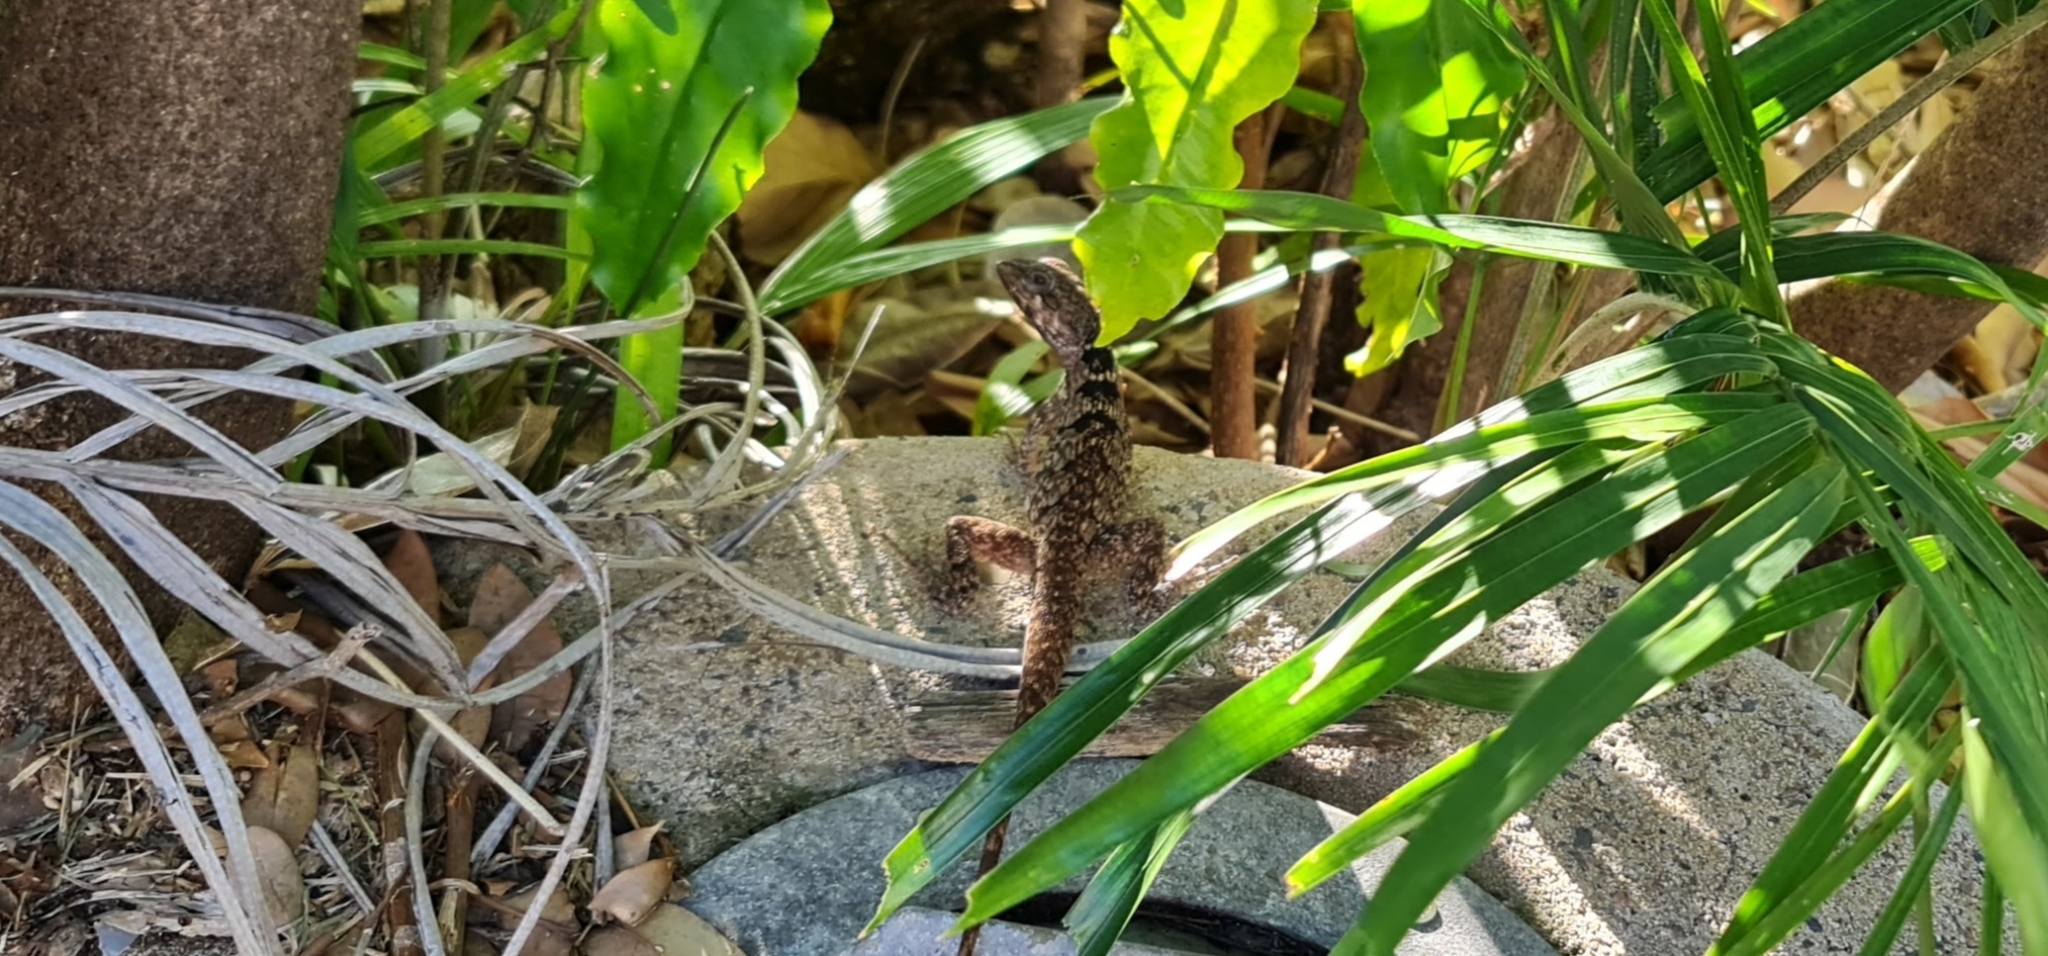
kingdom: Animalia
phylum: Chordata
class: Squamata
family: Agamidae
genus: Tropicagama
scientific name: Tropicagama temporalis
